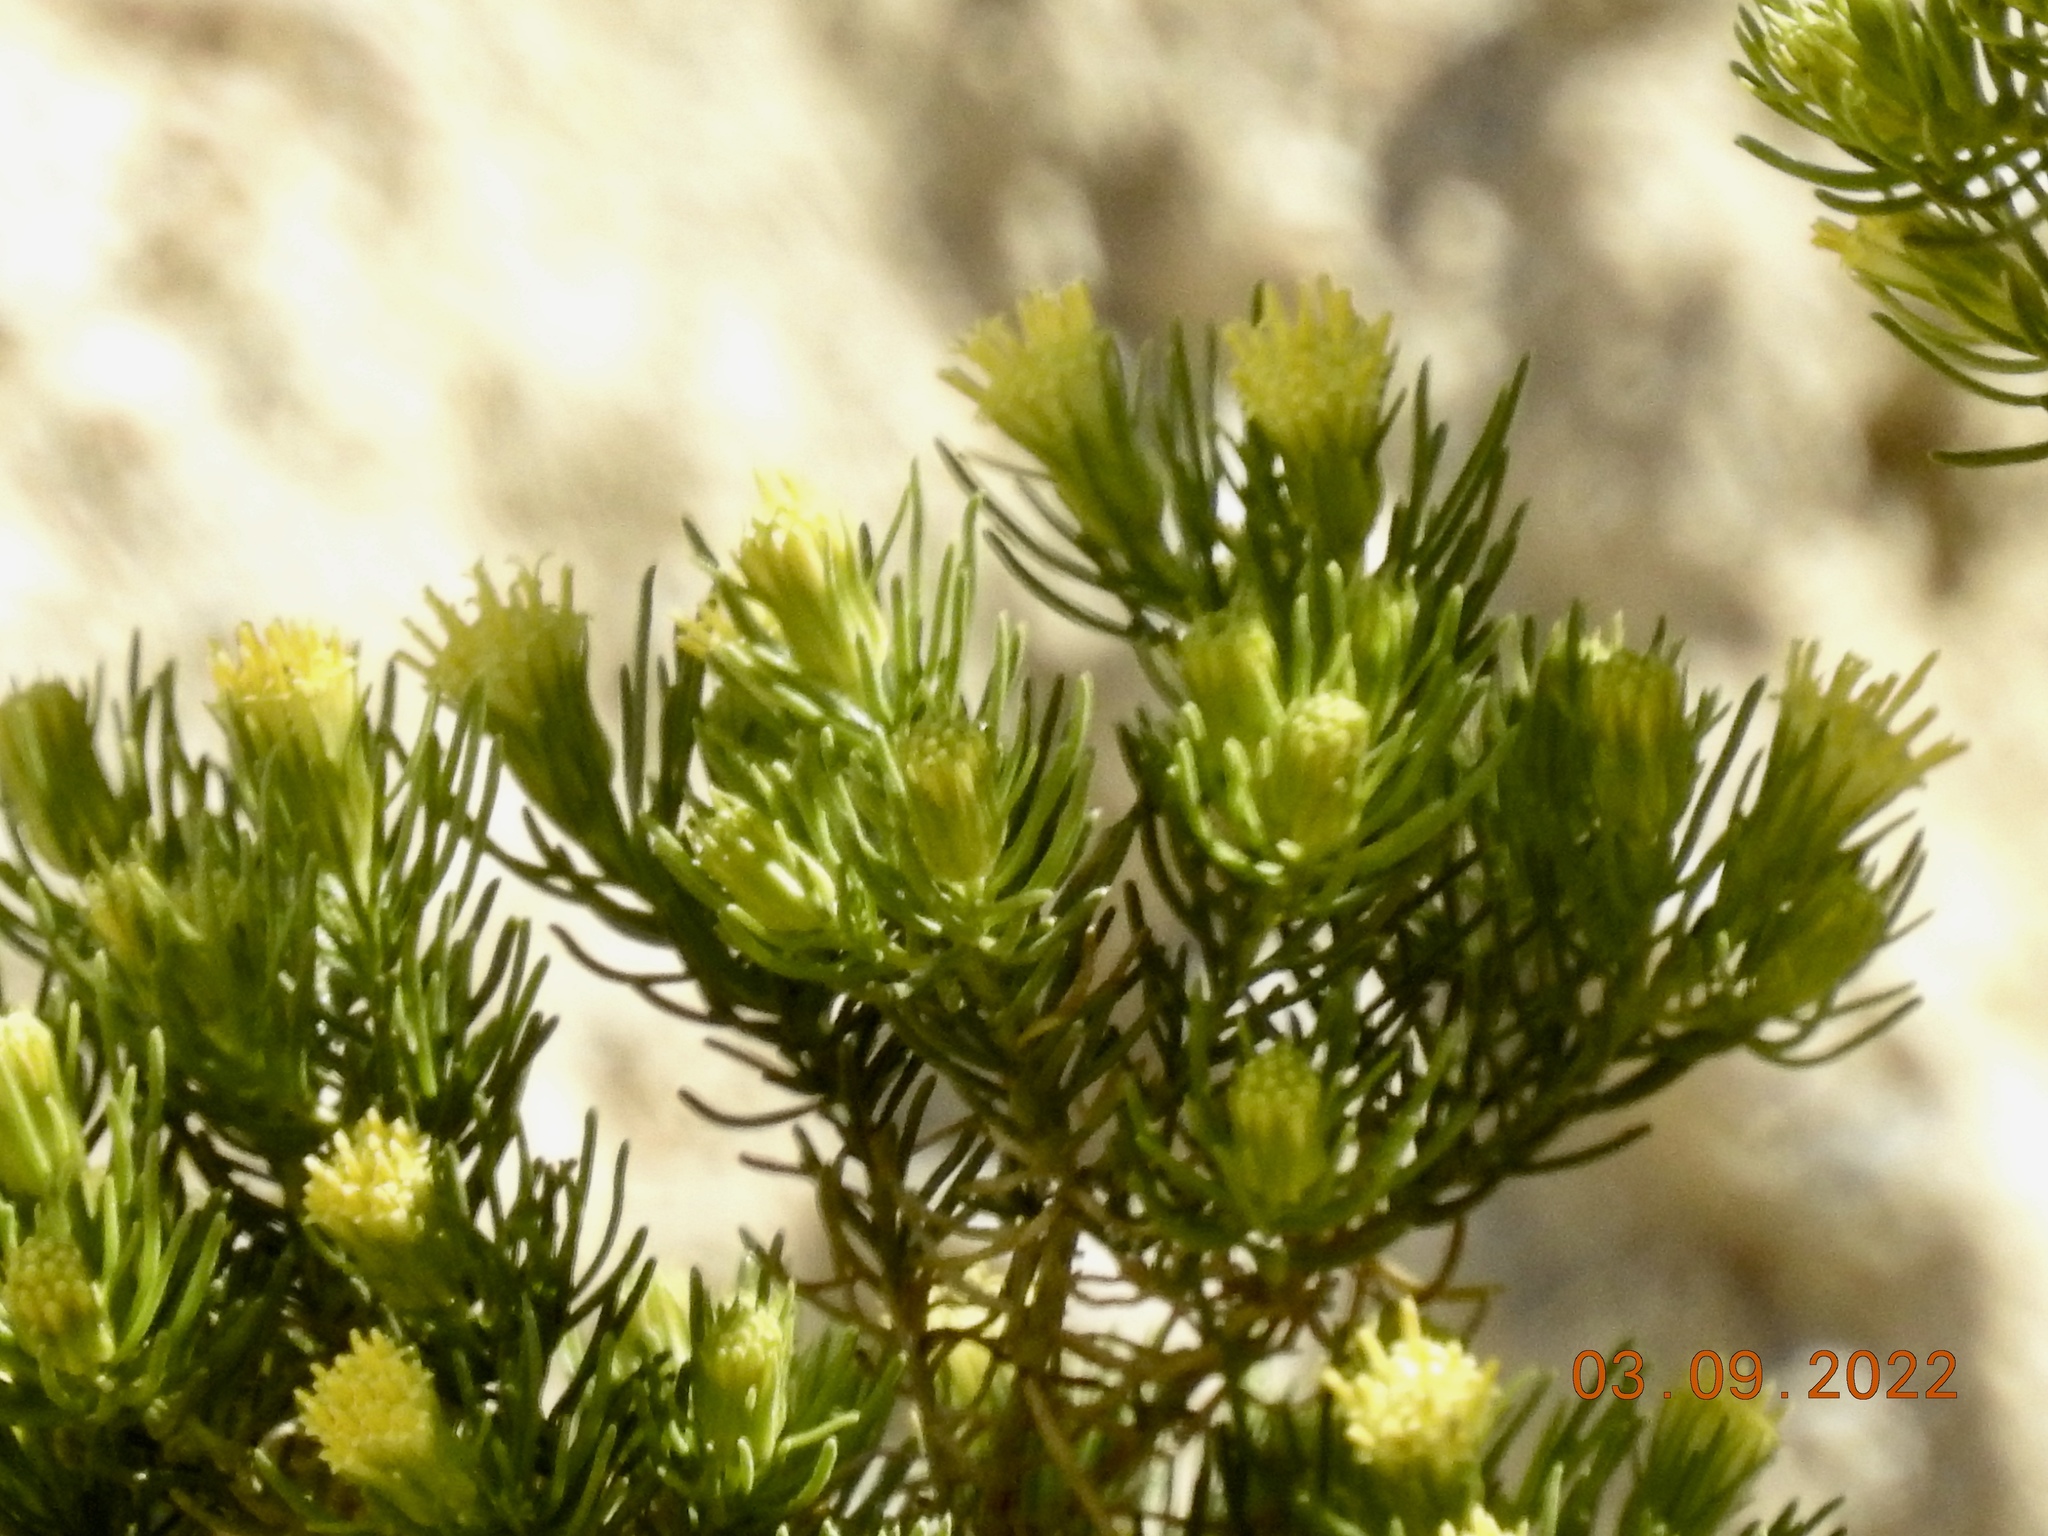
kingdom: Plantae
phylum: Tracheophyta
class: Magnoliopsida
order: Asterales
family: Asteraceae
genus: Peucephyllum
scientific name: Peucephyllum schottii
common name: Pygmy-cedar
